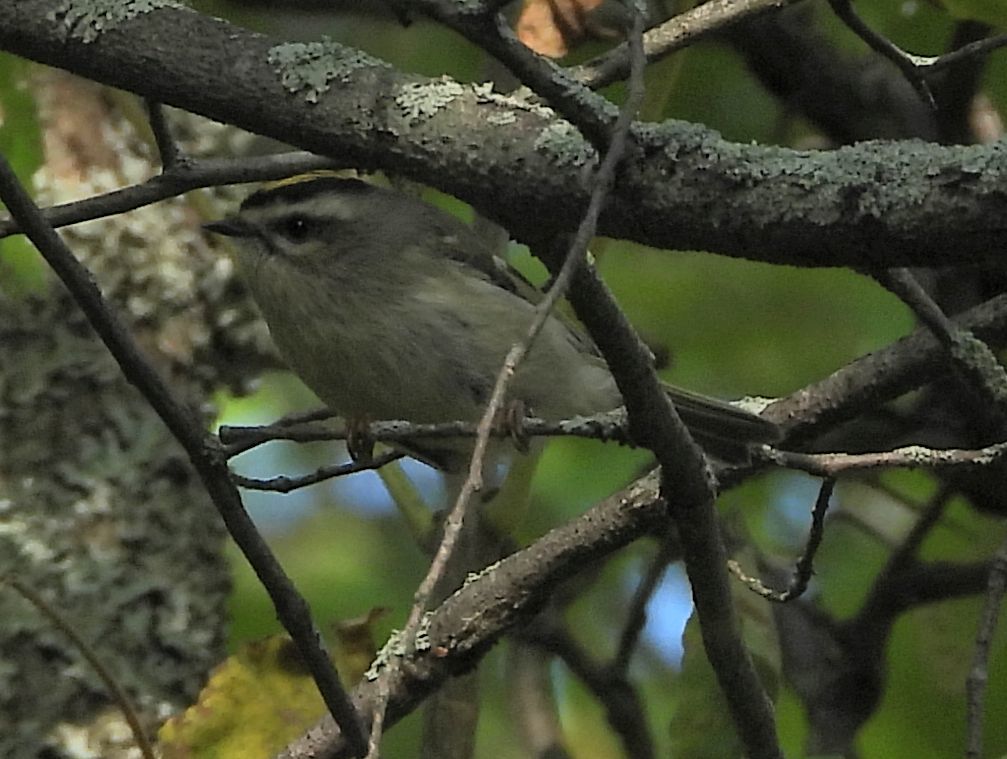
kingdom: Animalia
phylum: Chordata
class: Aves
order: Passeriformes
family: Regulidae
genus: Regulus
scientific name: Regulus satrapa
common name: Golden-crowned kinglet
